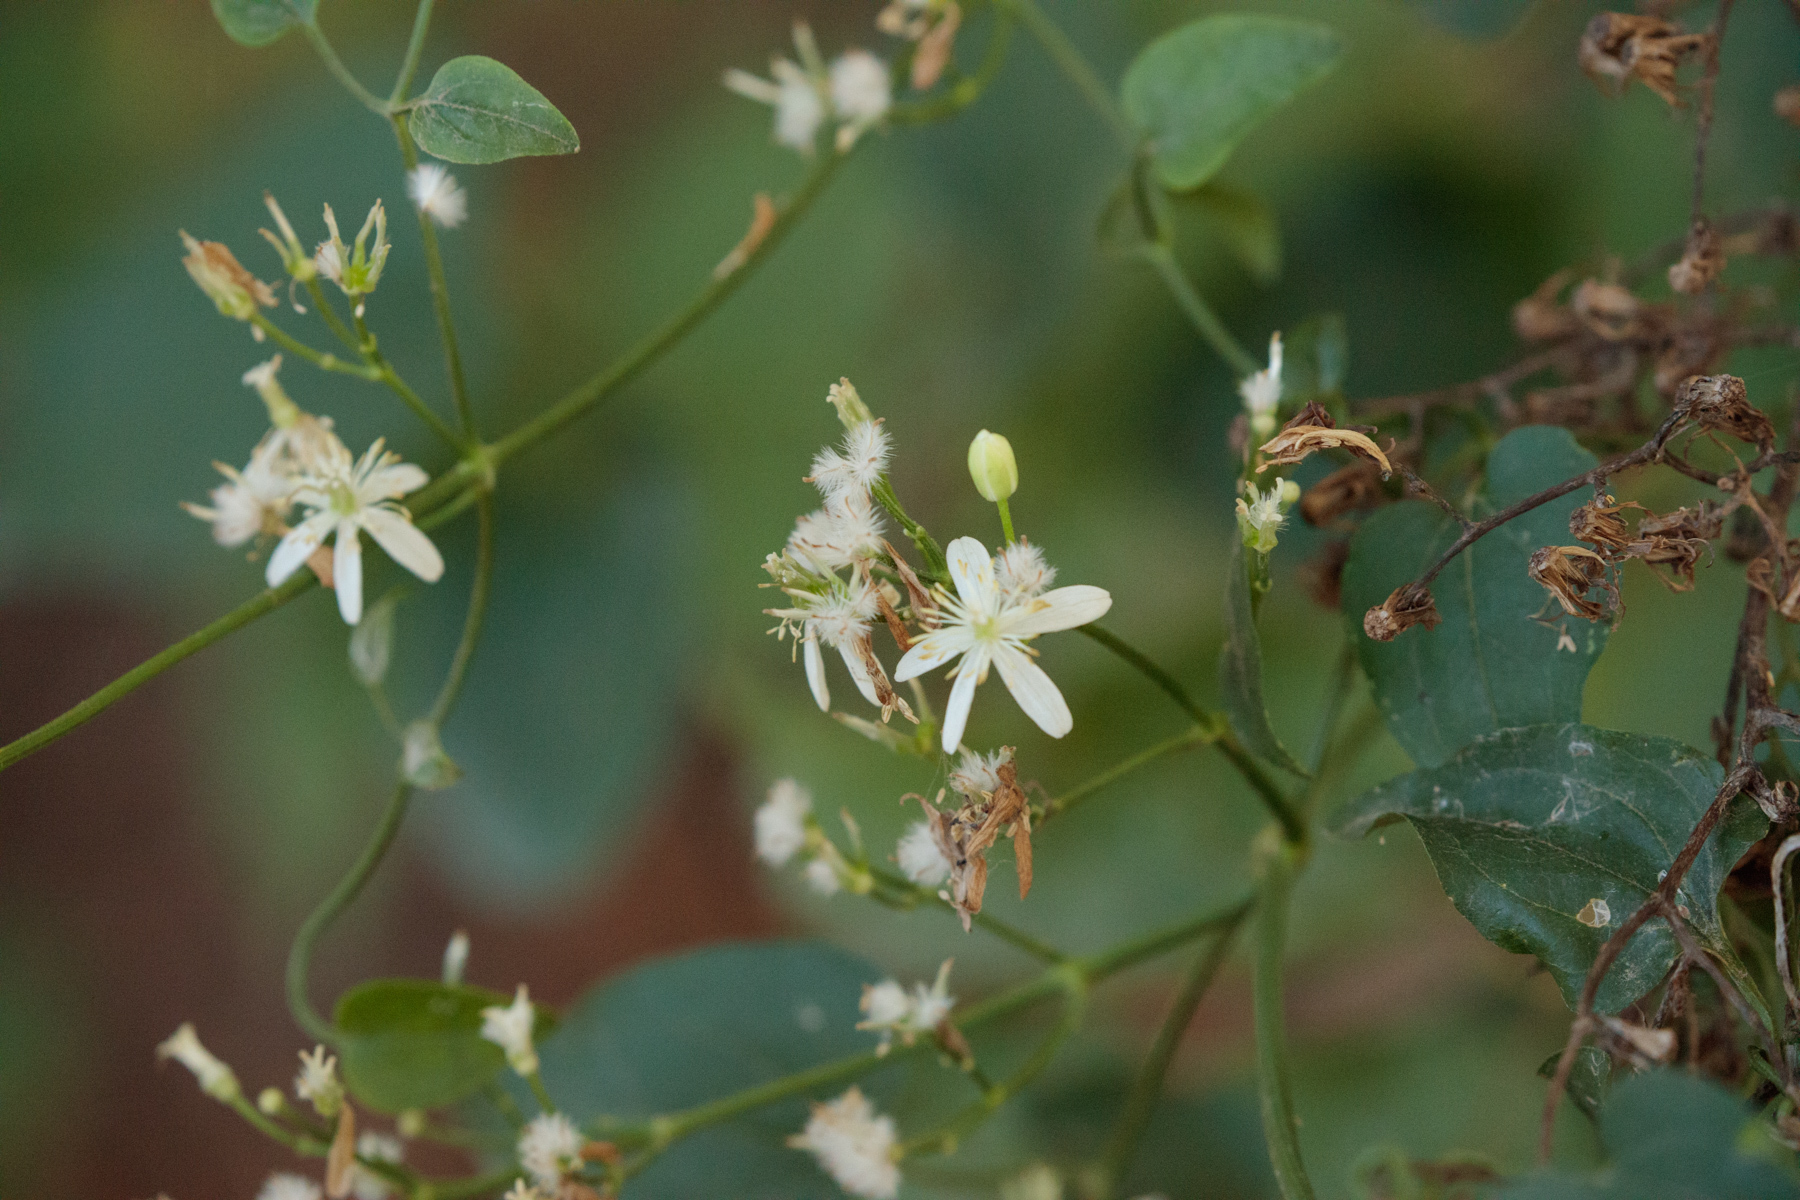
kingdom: Plantae
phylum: Tracheophyta
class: Magnoliopsida
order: Ranunculales
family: Ranunculaceae
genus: Clematis
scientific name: Clematis terniflora
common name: Sweet autumn clematis
